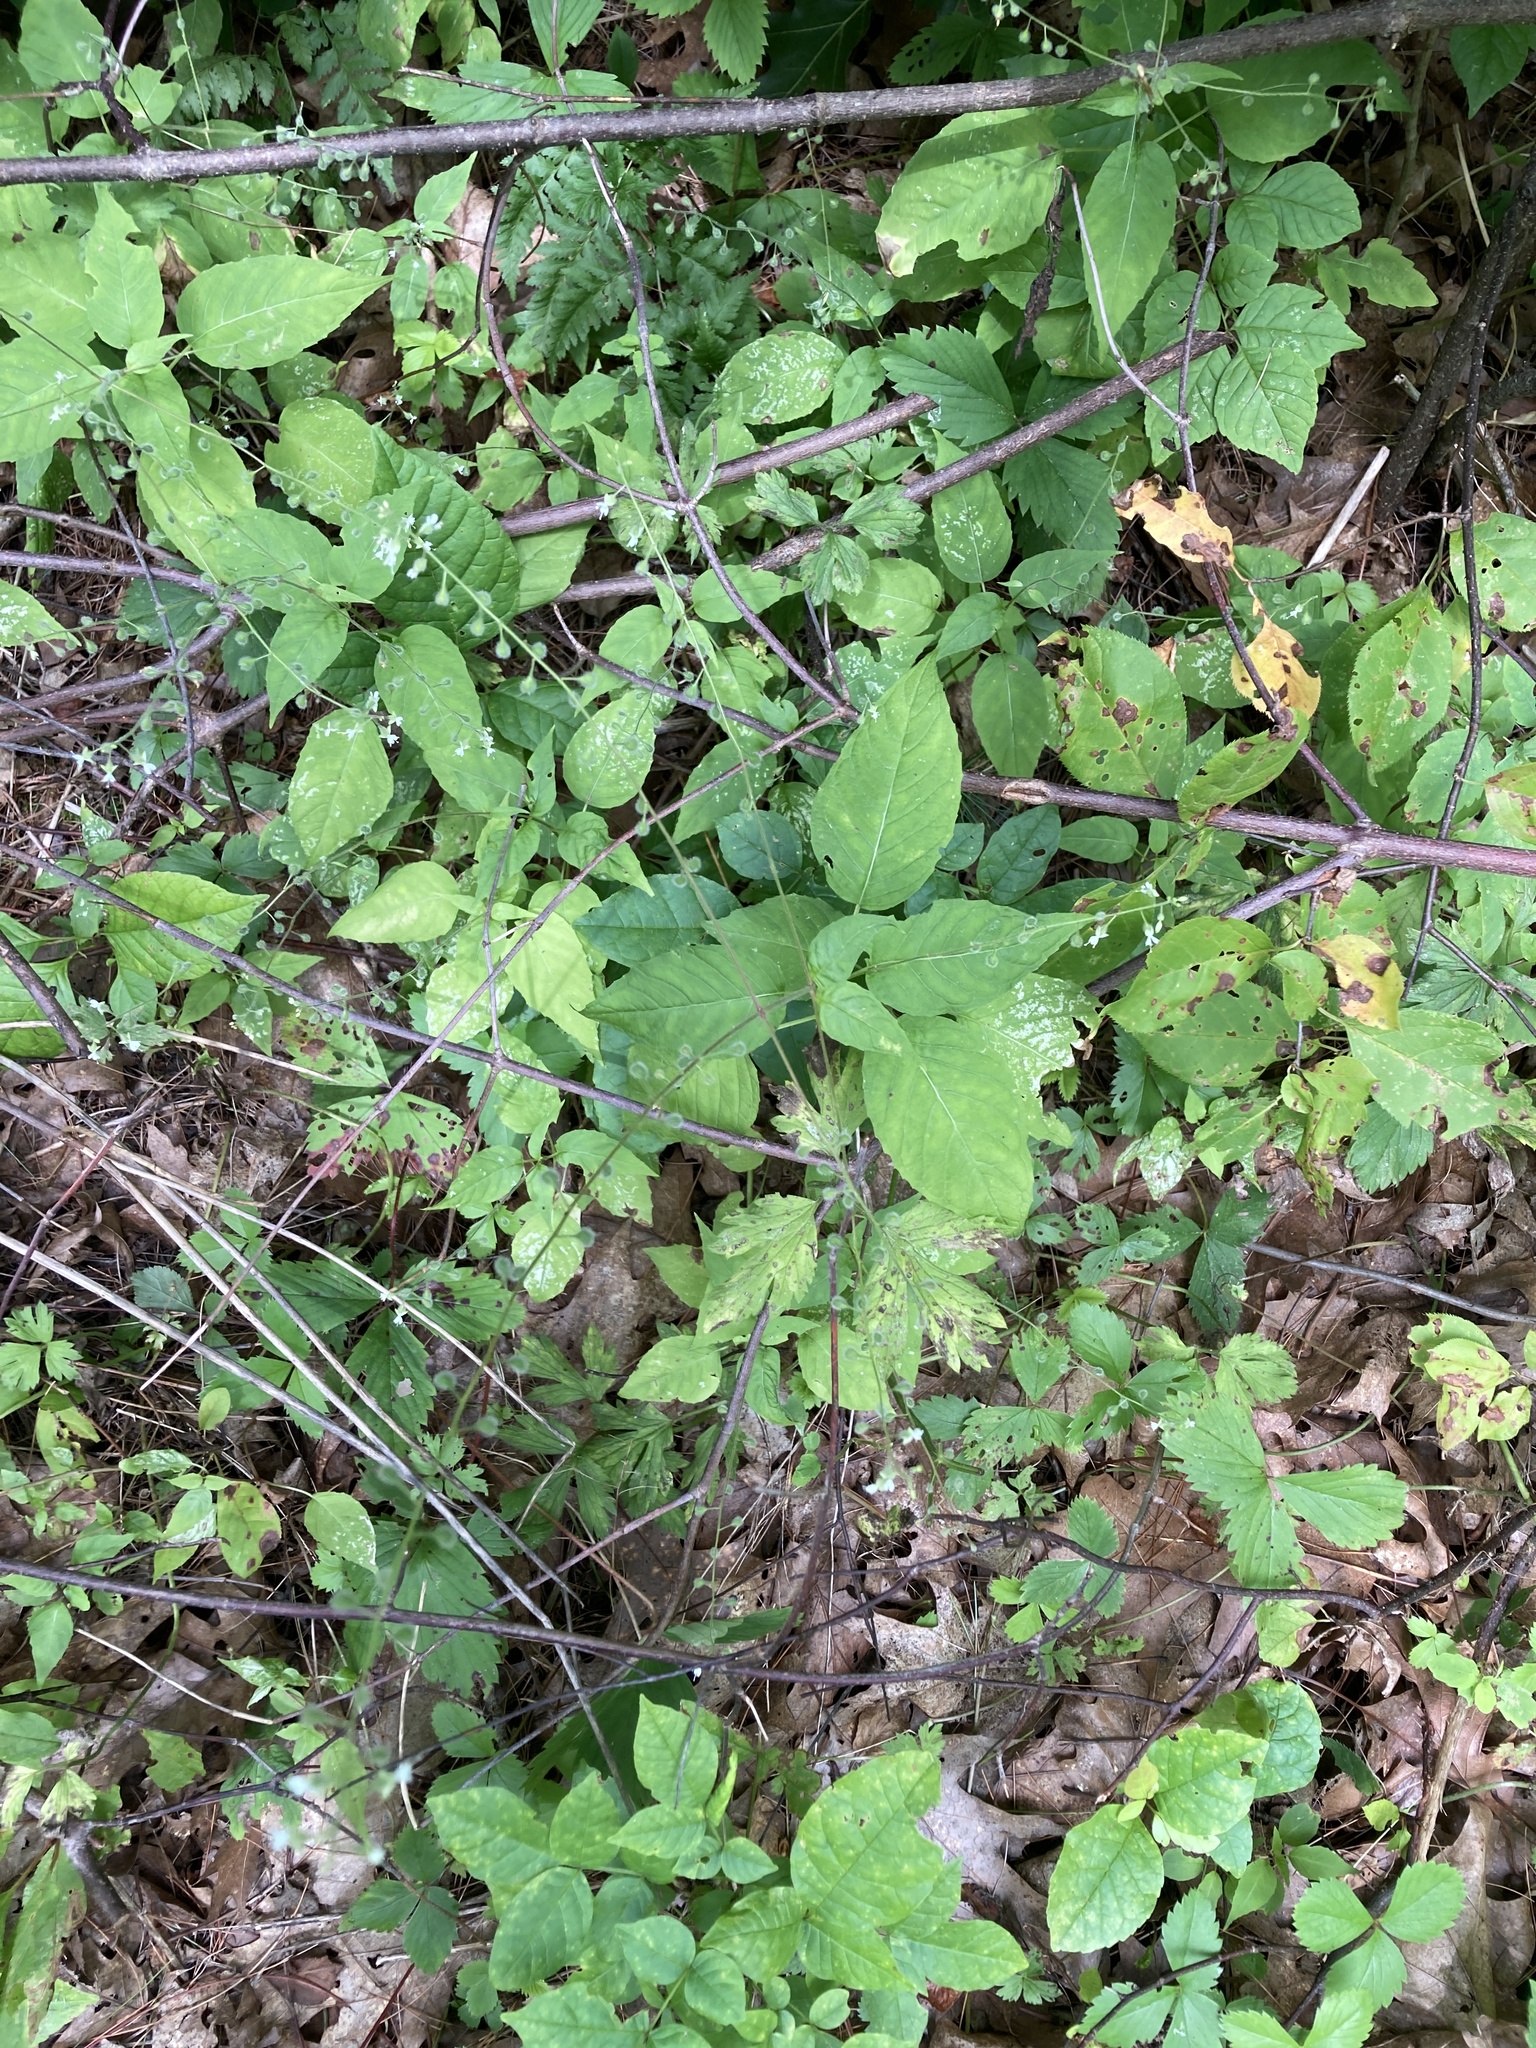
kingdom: Plantae
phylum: Tracheophyta
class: Magnoliopsida
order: Myrtales
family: Onagraceae
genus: Circaea
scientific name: Circaea canadensis
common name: Broad-leaved enchanter's nightshade
